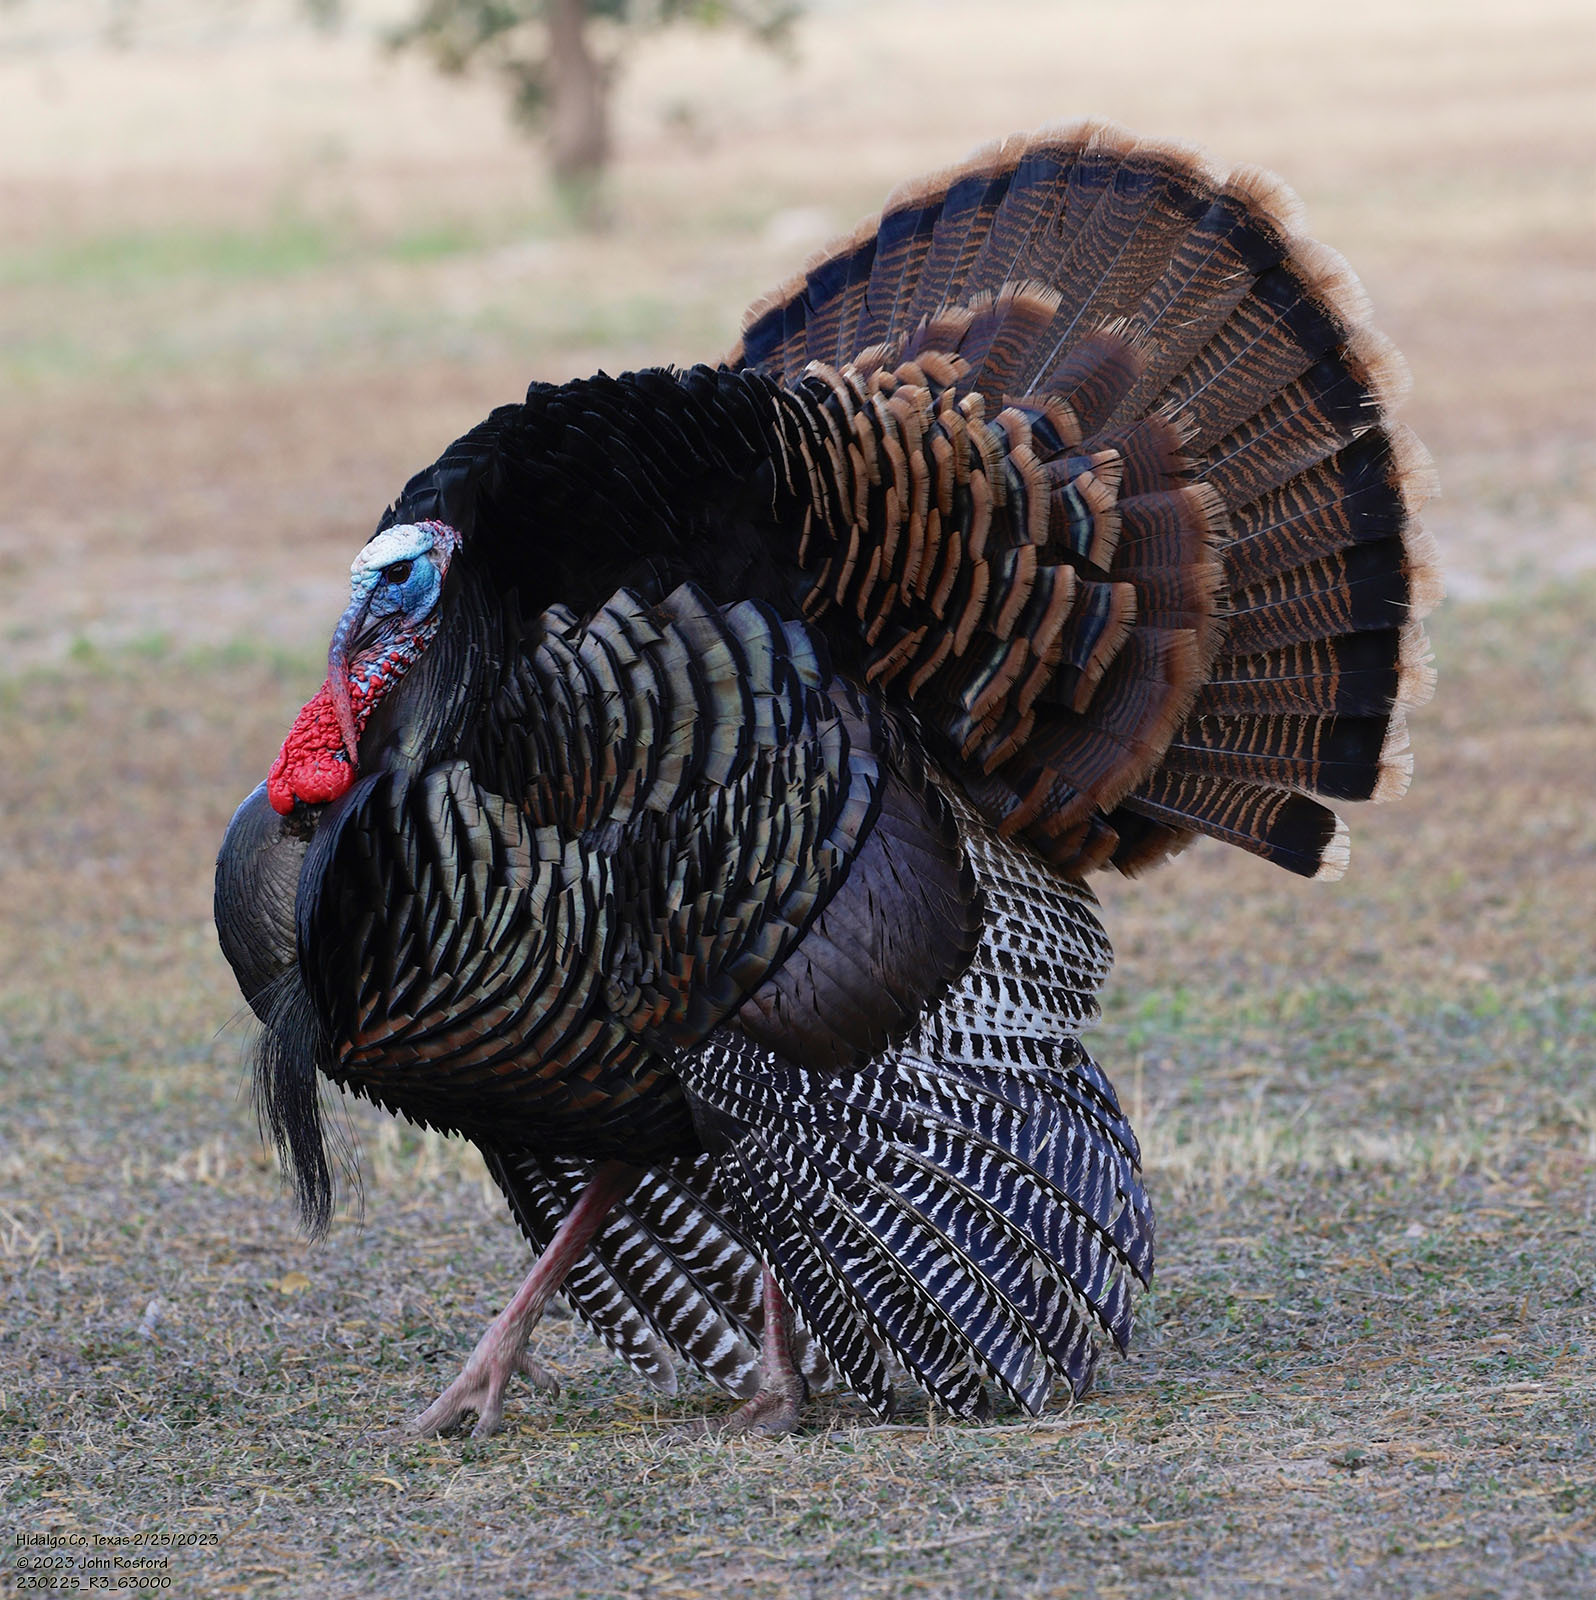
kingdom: Animalia
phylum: Chordata
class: Aves
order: Galliformes
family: Phasianidae
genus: Meleagris
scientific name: Meleagris gallopavo
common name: Wild turkey
